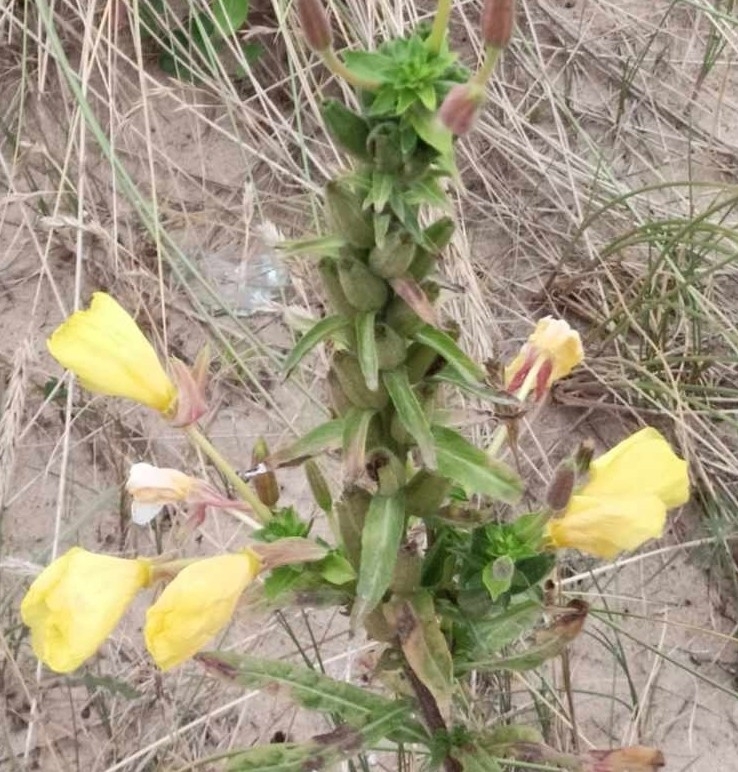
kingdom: Plantae
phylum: Tracheophyta
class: Magnoliopsida
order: Myrtales
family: Onagraceae
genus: Oenothera
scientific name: Oenothera glazioviana
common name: Large-flowered evening-primrose
